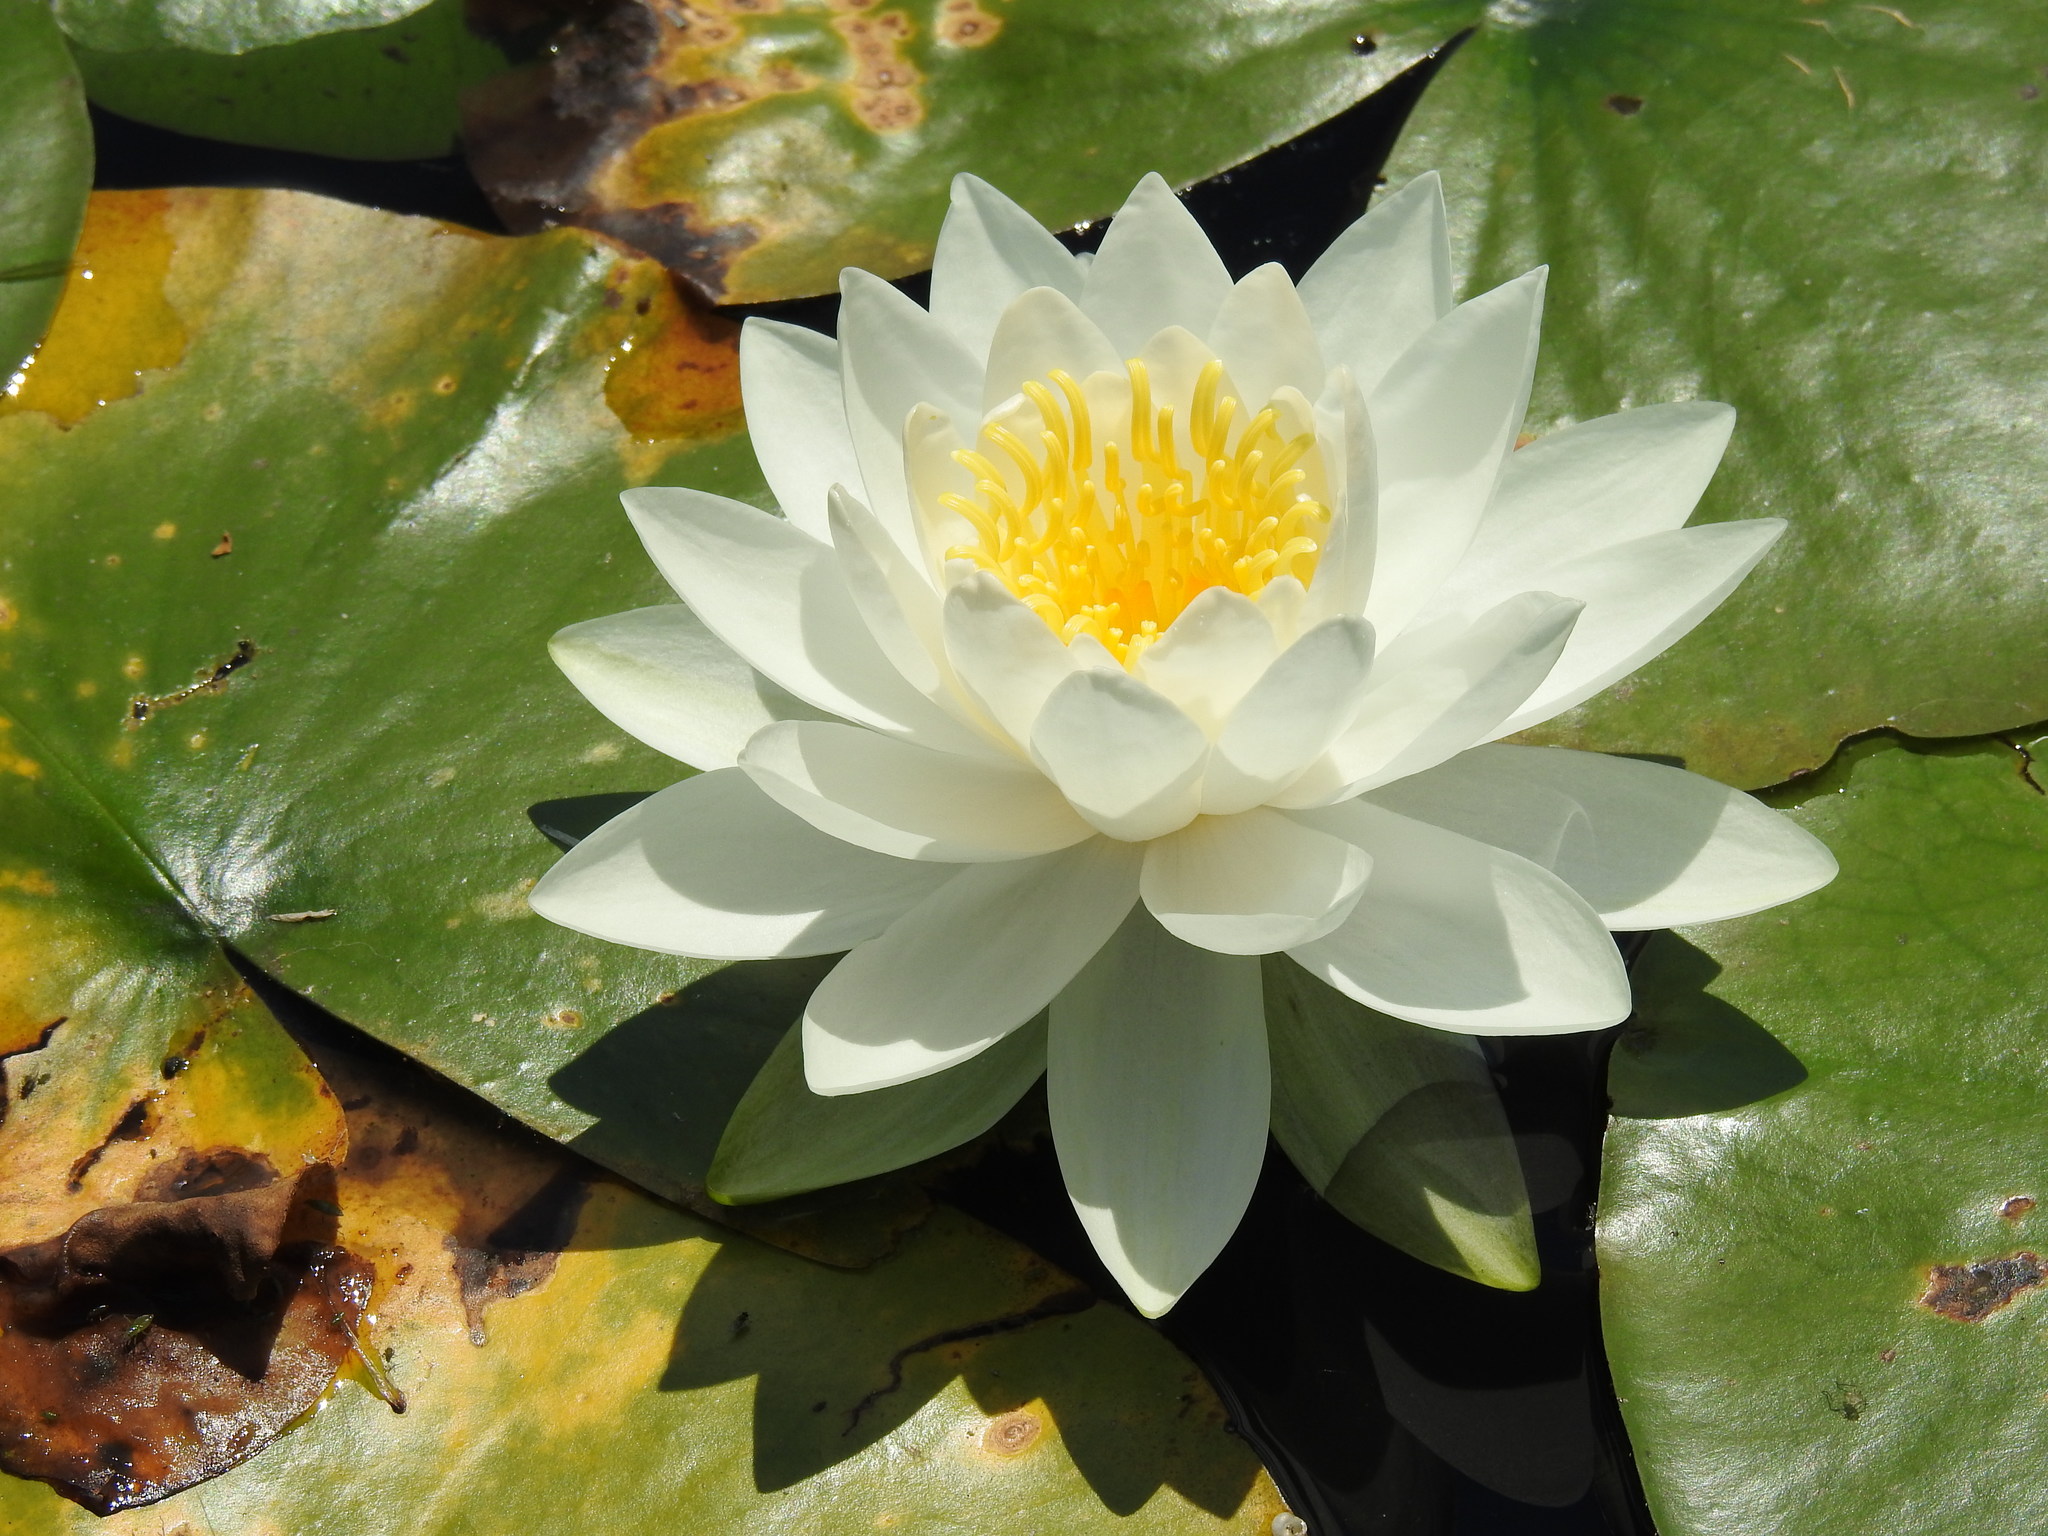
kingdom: Plantae
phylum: Tracheophyta
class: Magnoliopsida
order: Nymphaeales
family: Nymphaeaceae
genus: Nymphaea
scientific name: Nymphaea odorata
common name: Fragrant water-lily
